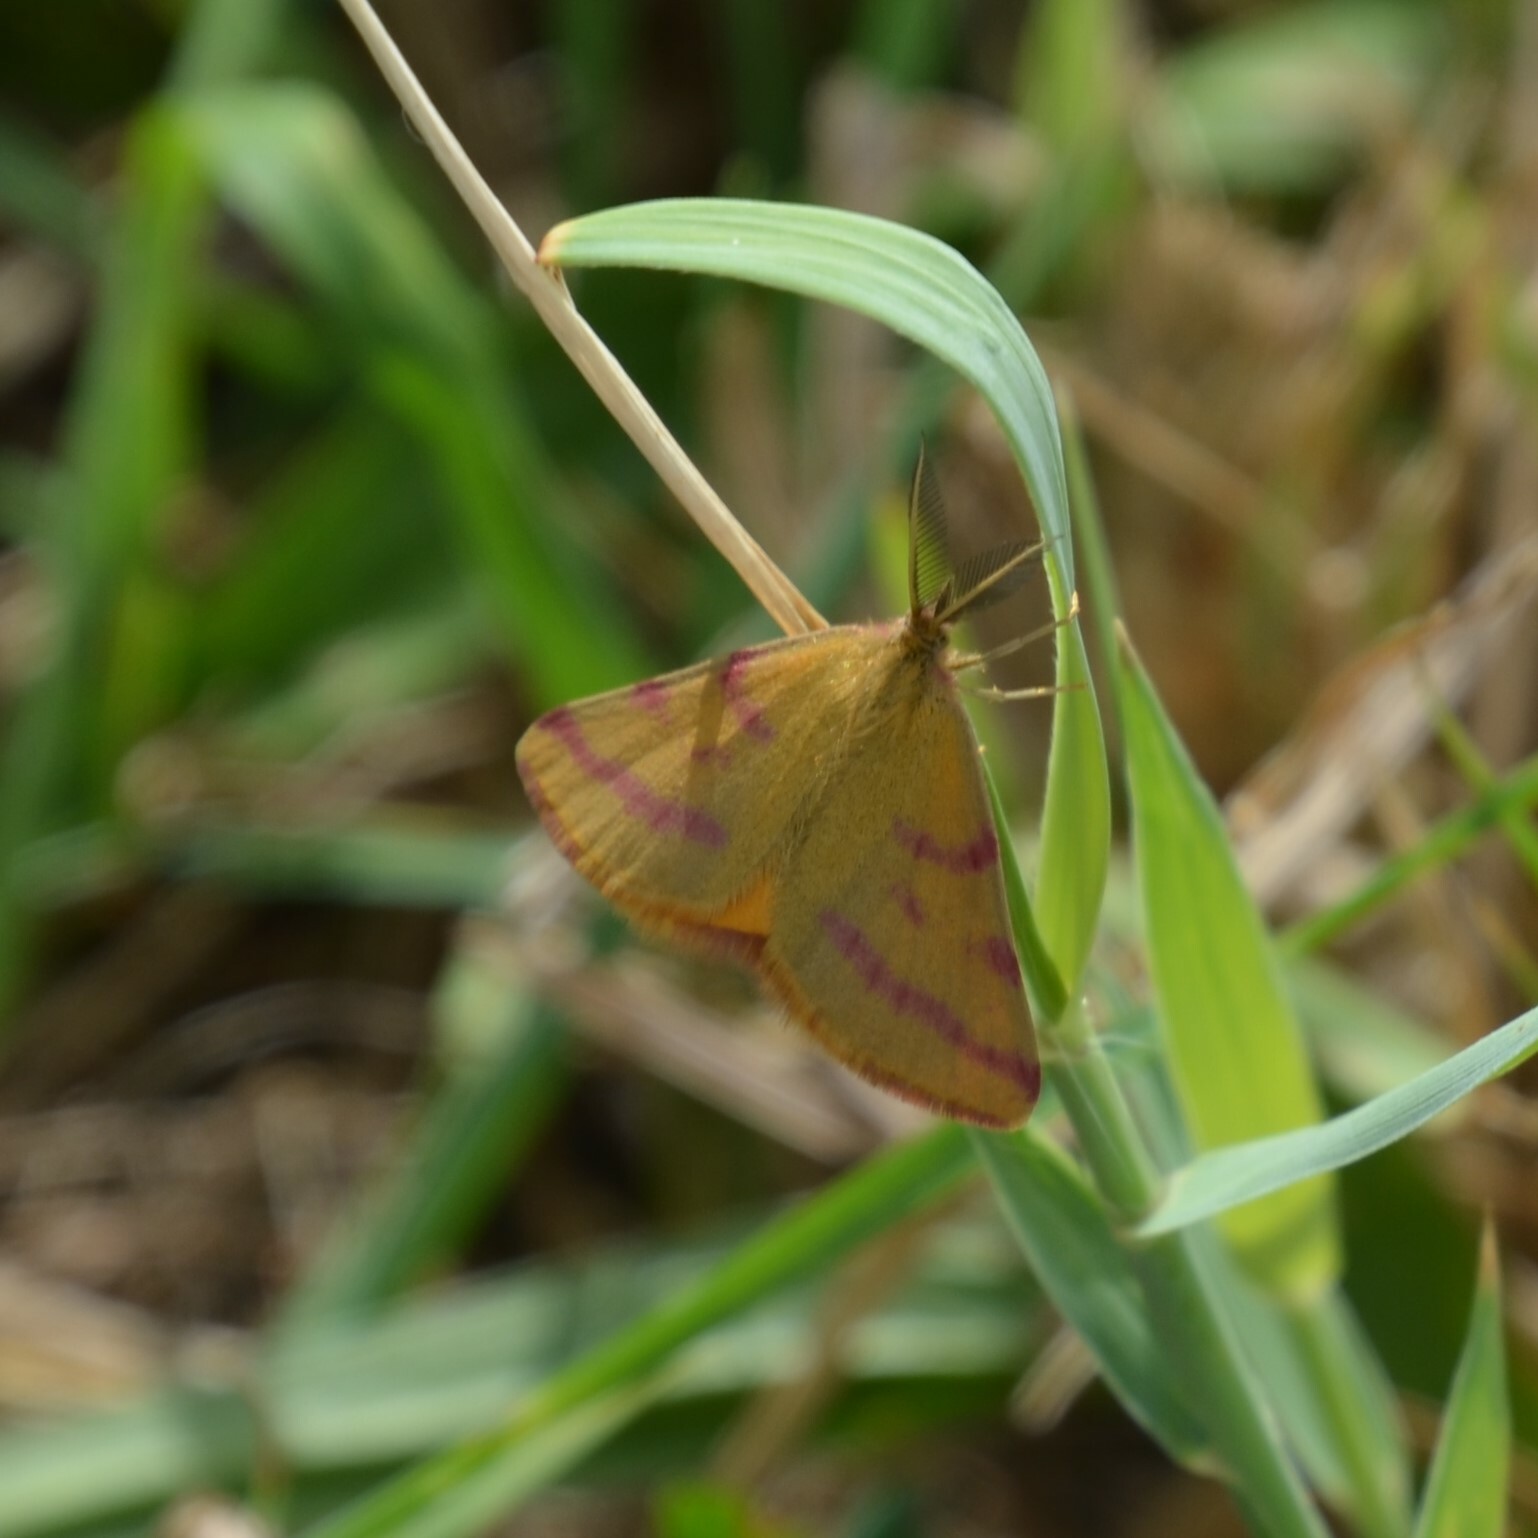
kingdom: Animalia
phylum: Arthropoda
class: Insecta
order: Lepidoptera
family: Geometridae
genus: Lythria
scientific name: Lythria purpuraria
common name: Purple-barred yellow
